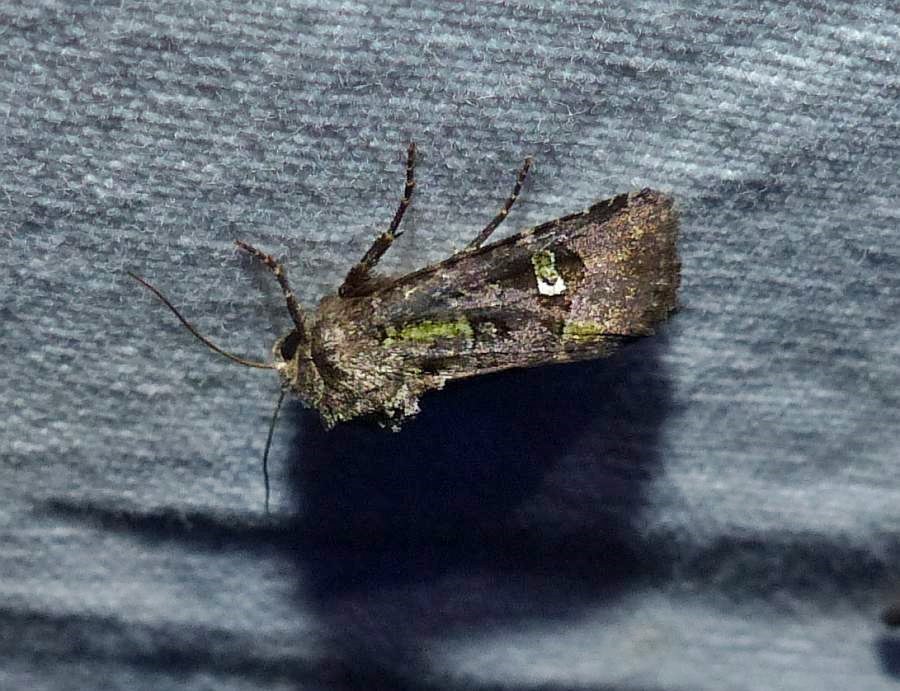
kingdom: Animalia
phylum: Arthropoda
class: Insecta
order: Lepidoptera
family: Noctuidae
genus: Lacinipolia
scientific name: Lacinipolia renigera
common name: Kidney-spotted minor
